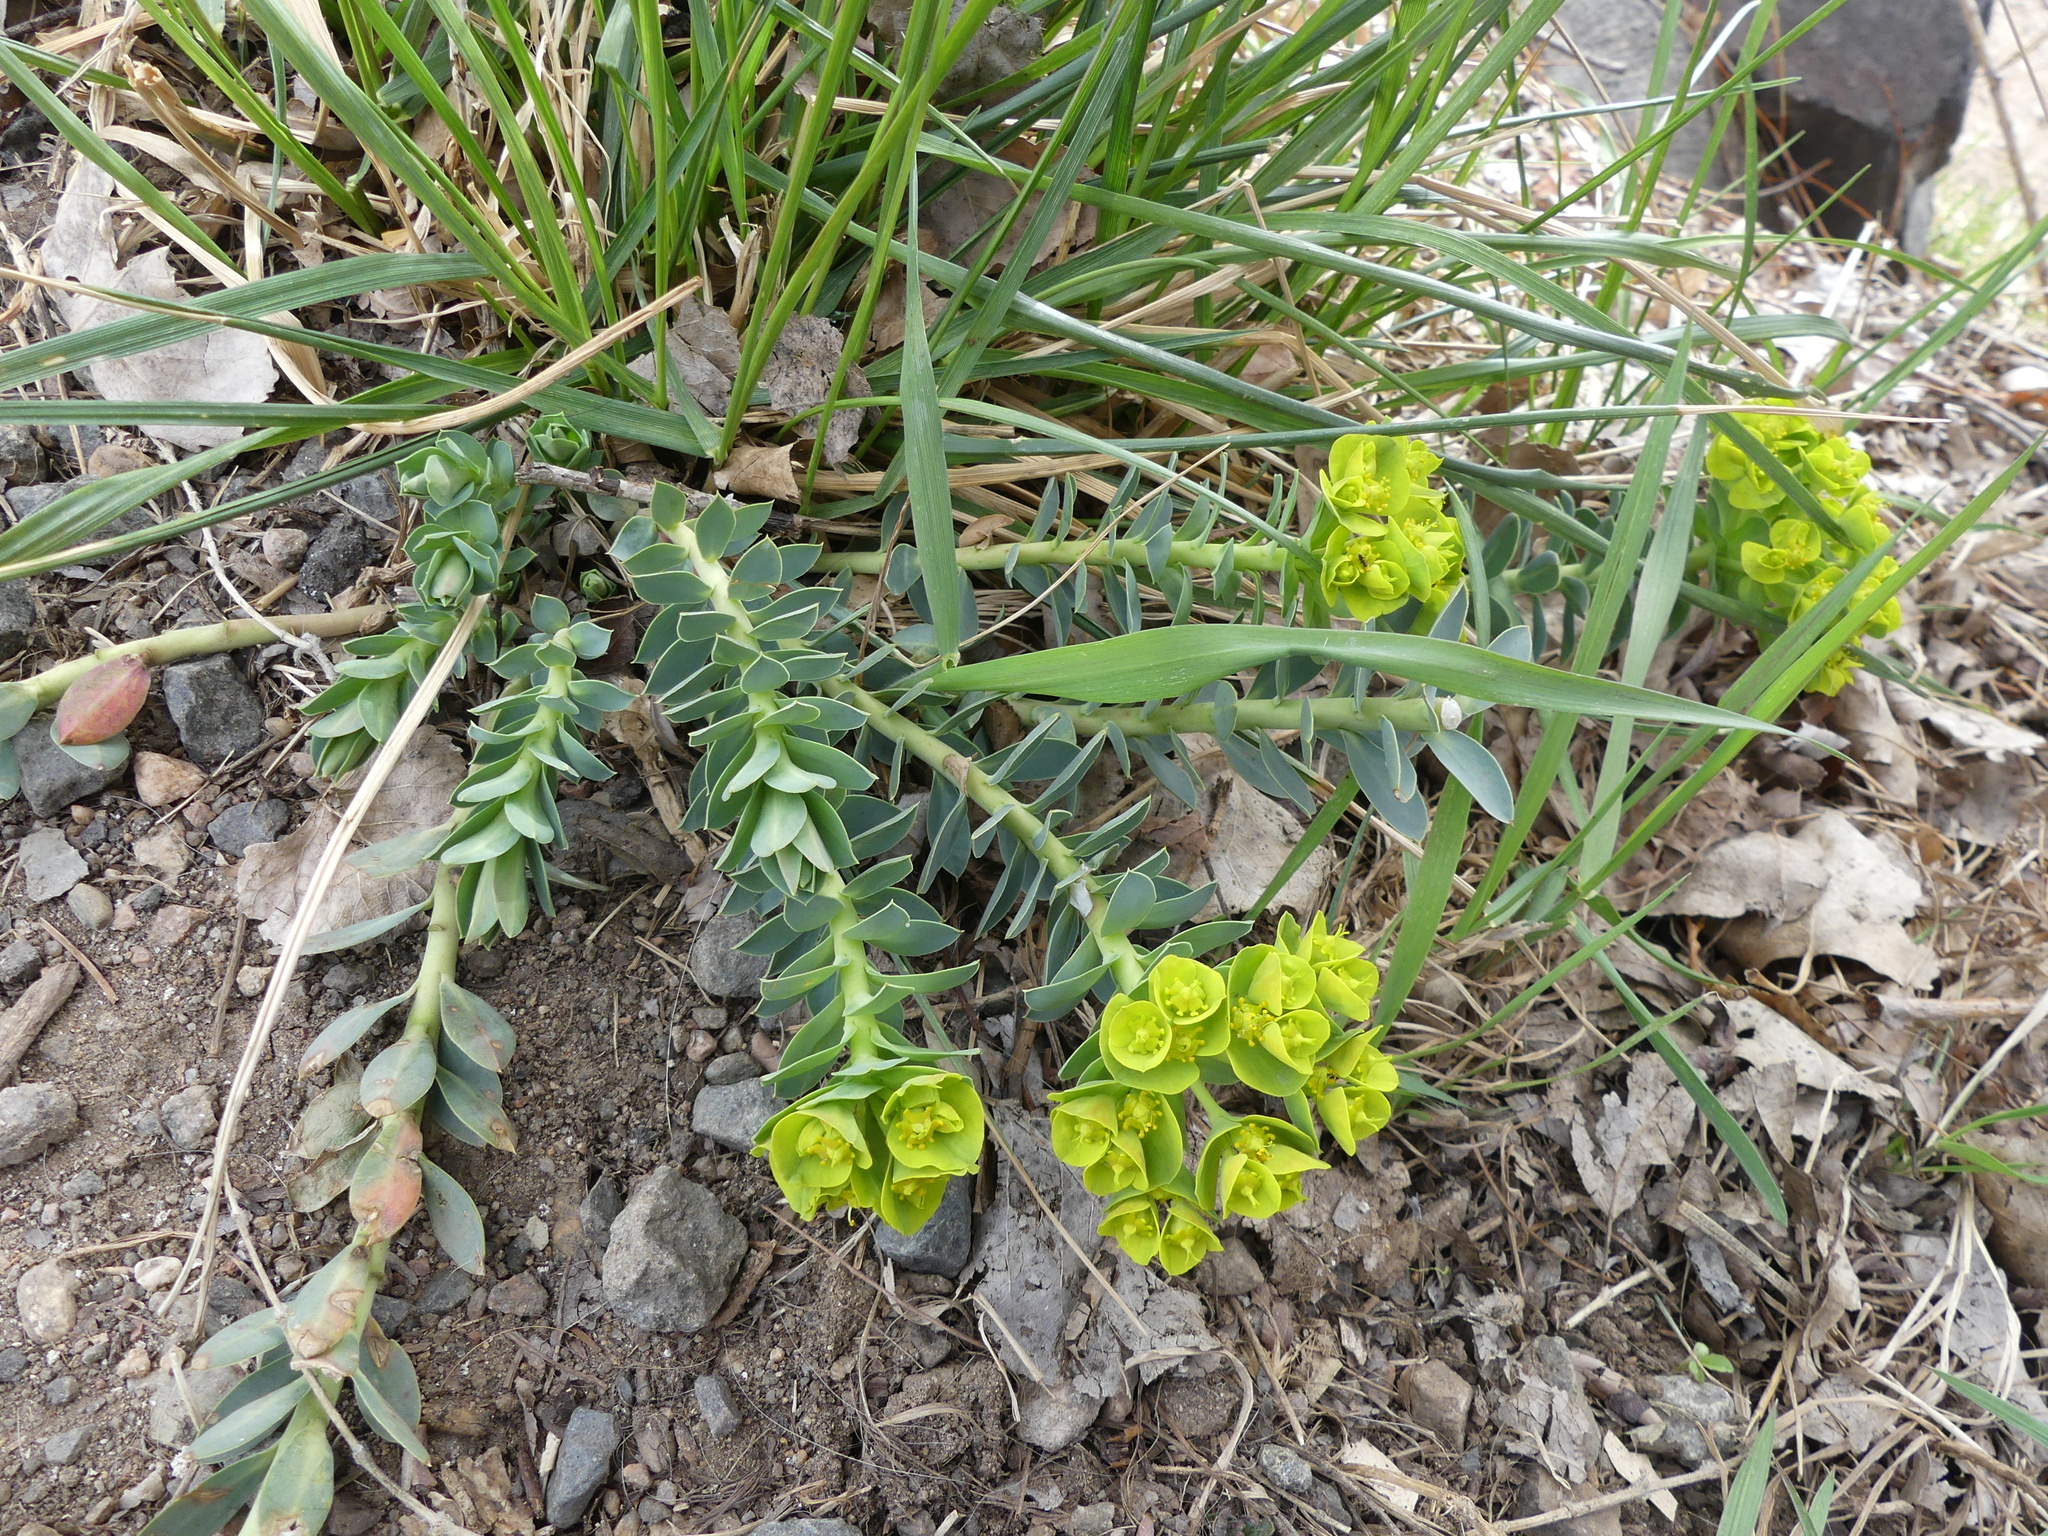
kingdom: Plantae
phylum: Tracheophyta
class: Magnoliopsida
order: Malpighiales
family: Euphorbiaceae
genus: Euphorbia
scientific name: Euphorbia myrsinites
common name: Myrtle spurge
